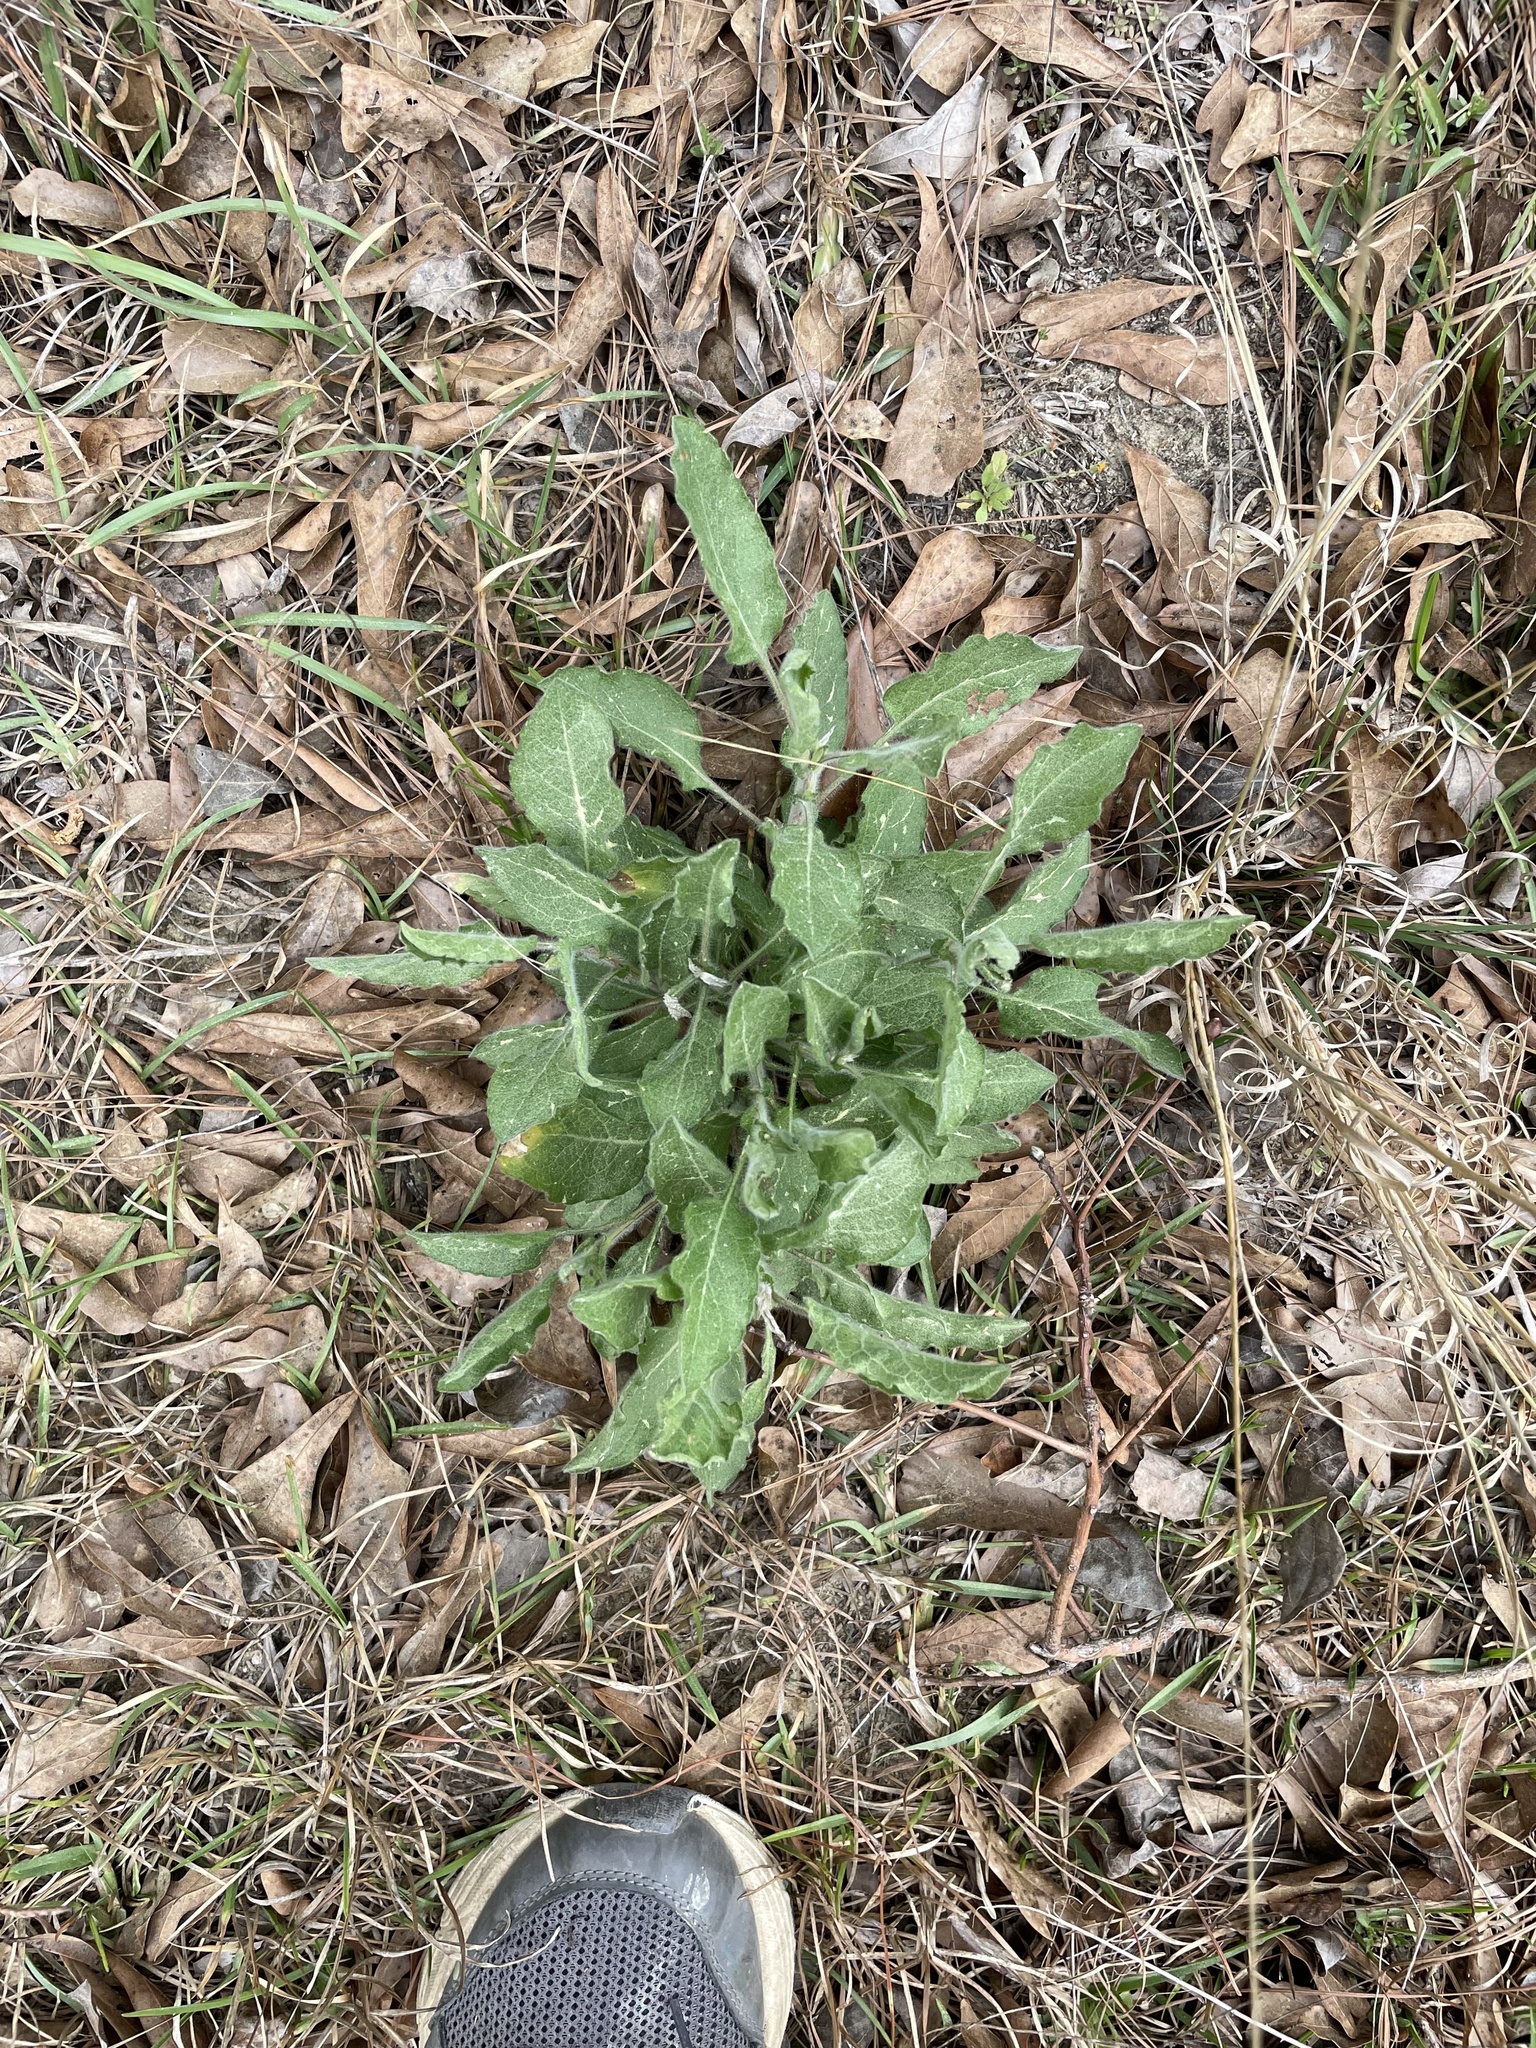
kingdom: Plantae
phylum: Tracheophyta
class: Magnoliopsida
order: Asterales
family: Asteraceae
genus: Heterotheca
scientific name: Heterotheca subaxillaris
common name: Camphorweed
